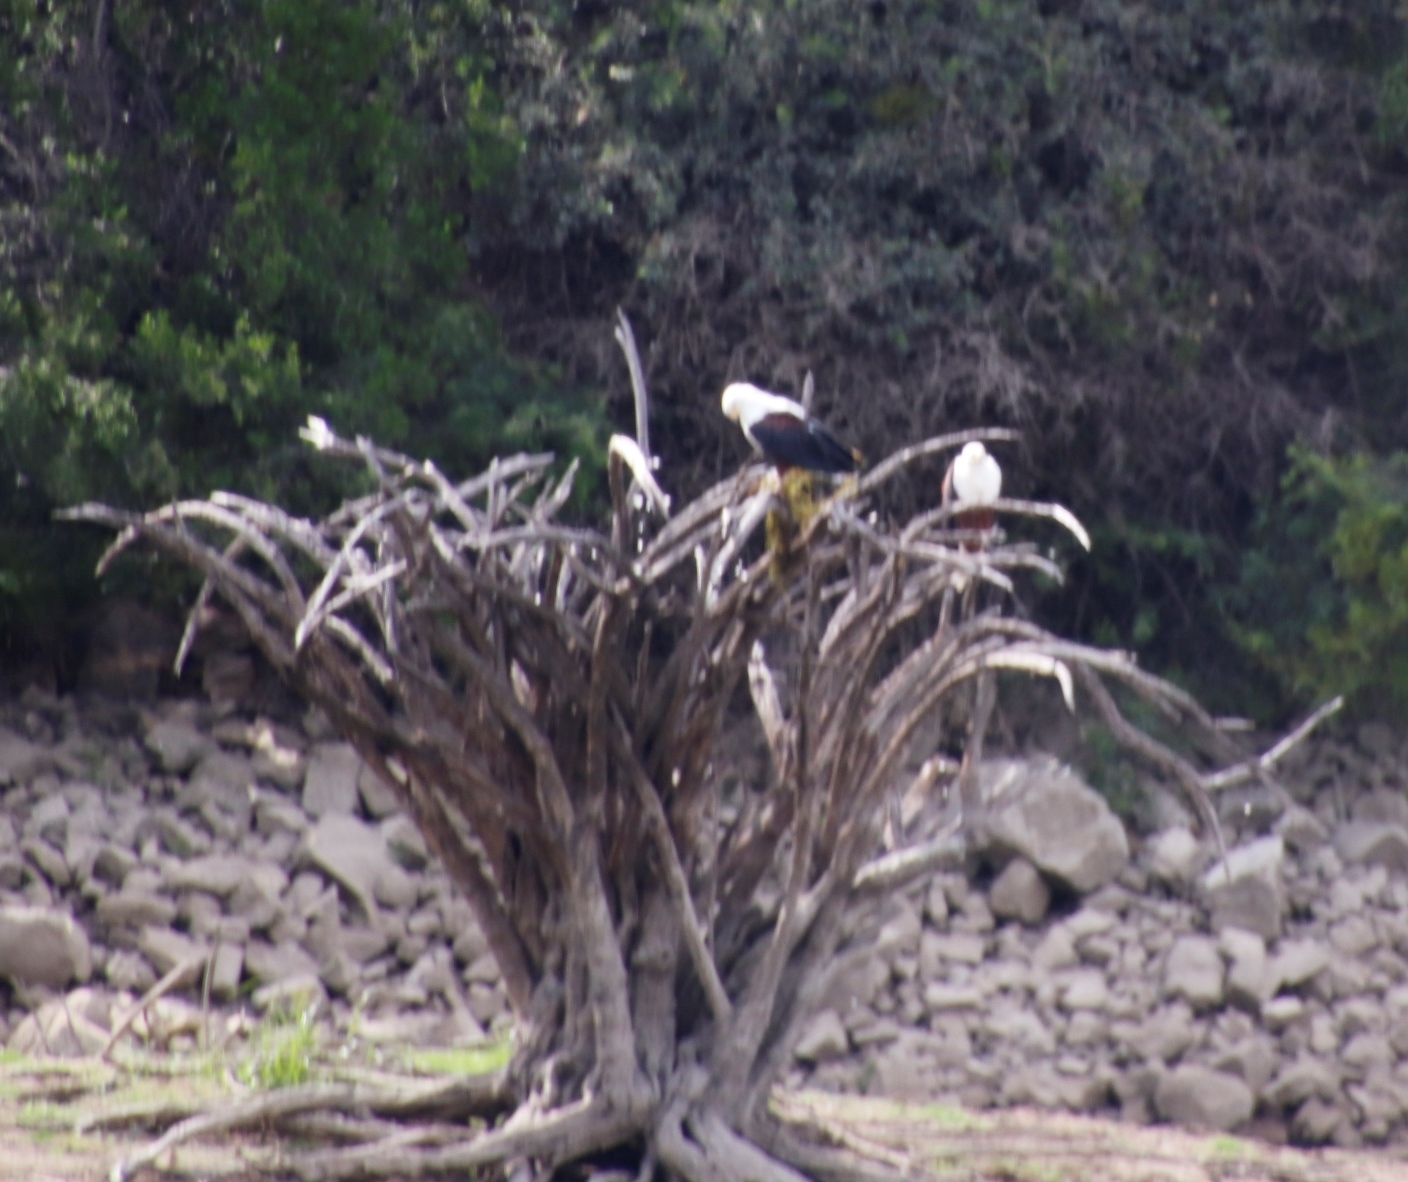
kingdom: Animalia
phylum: Chordata
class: Aves
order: Accipitriformes
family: Accipitridae
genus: Haliaeetus
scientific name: Haliaeetus vocifer
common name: African fish eagle
